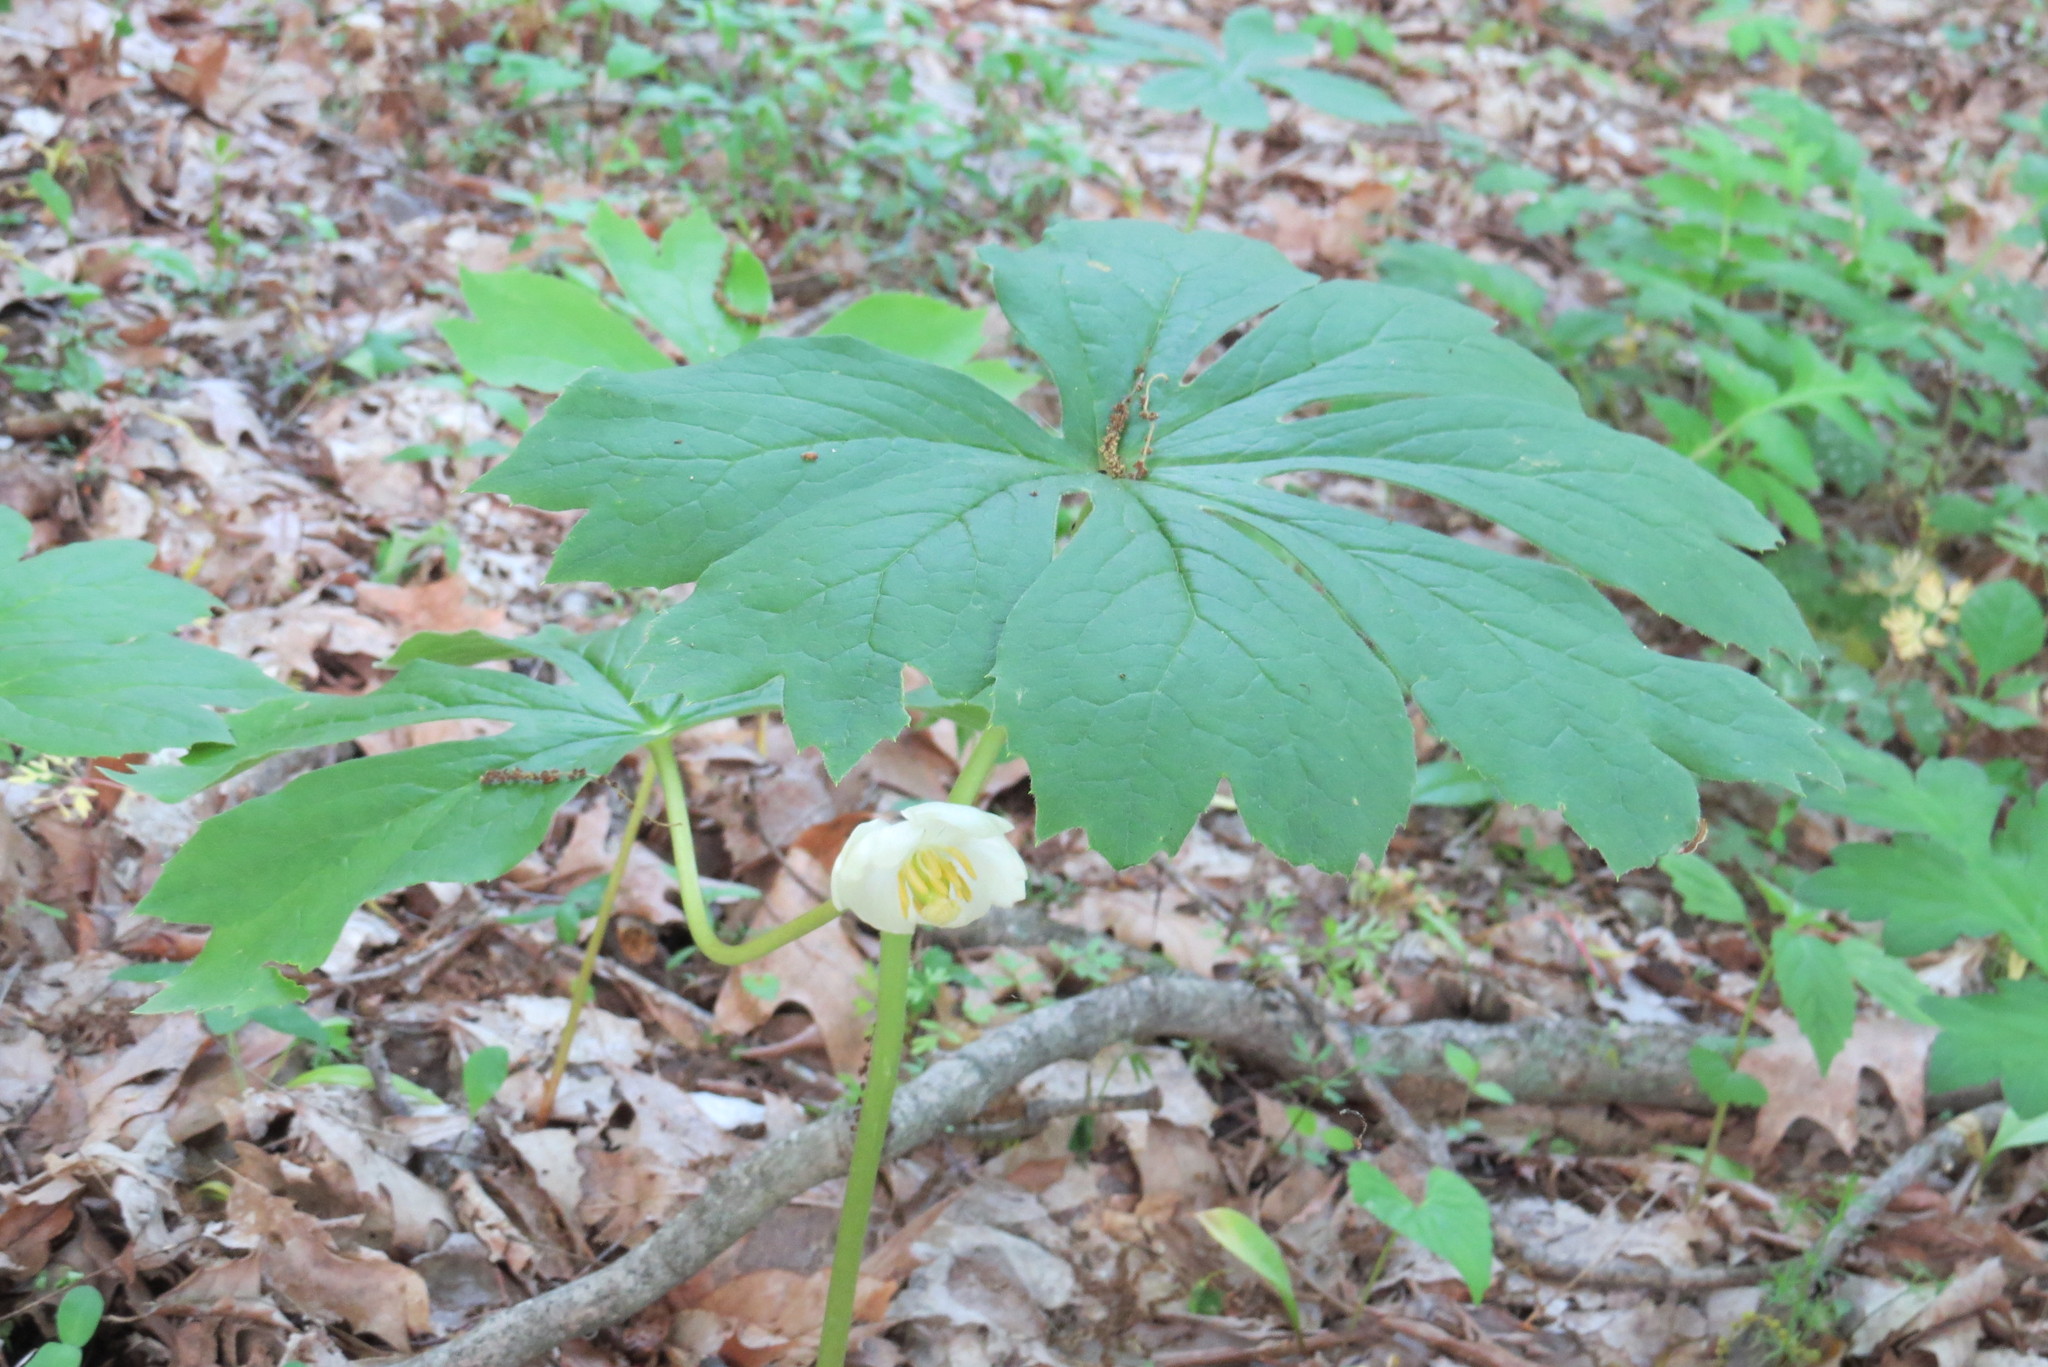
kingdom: Plantae
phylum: Tracheophyta
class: Magnoliopsida
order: Ranunculales
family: Berberidaceae
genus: Podophyllum
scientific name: Podophyllum peltatum
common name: Wild mandrake
